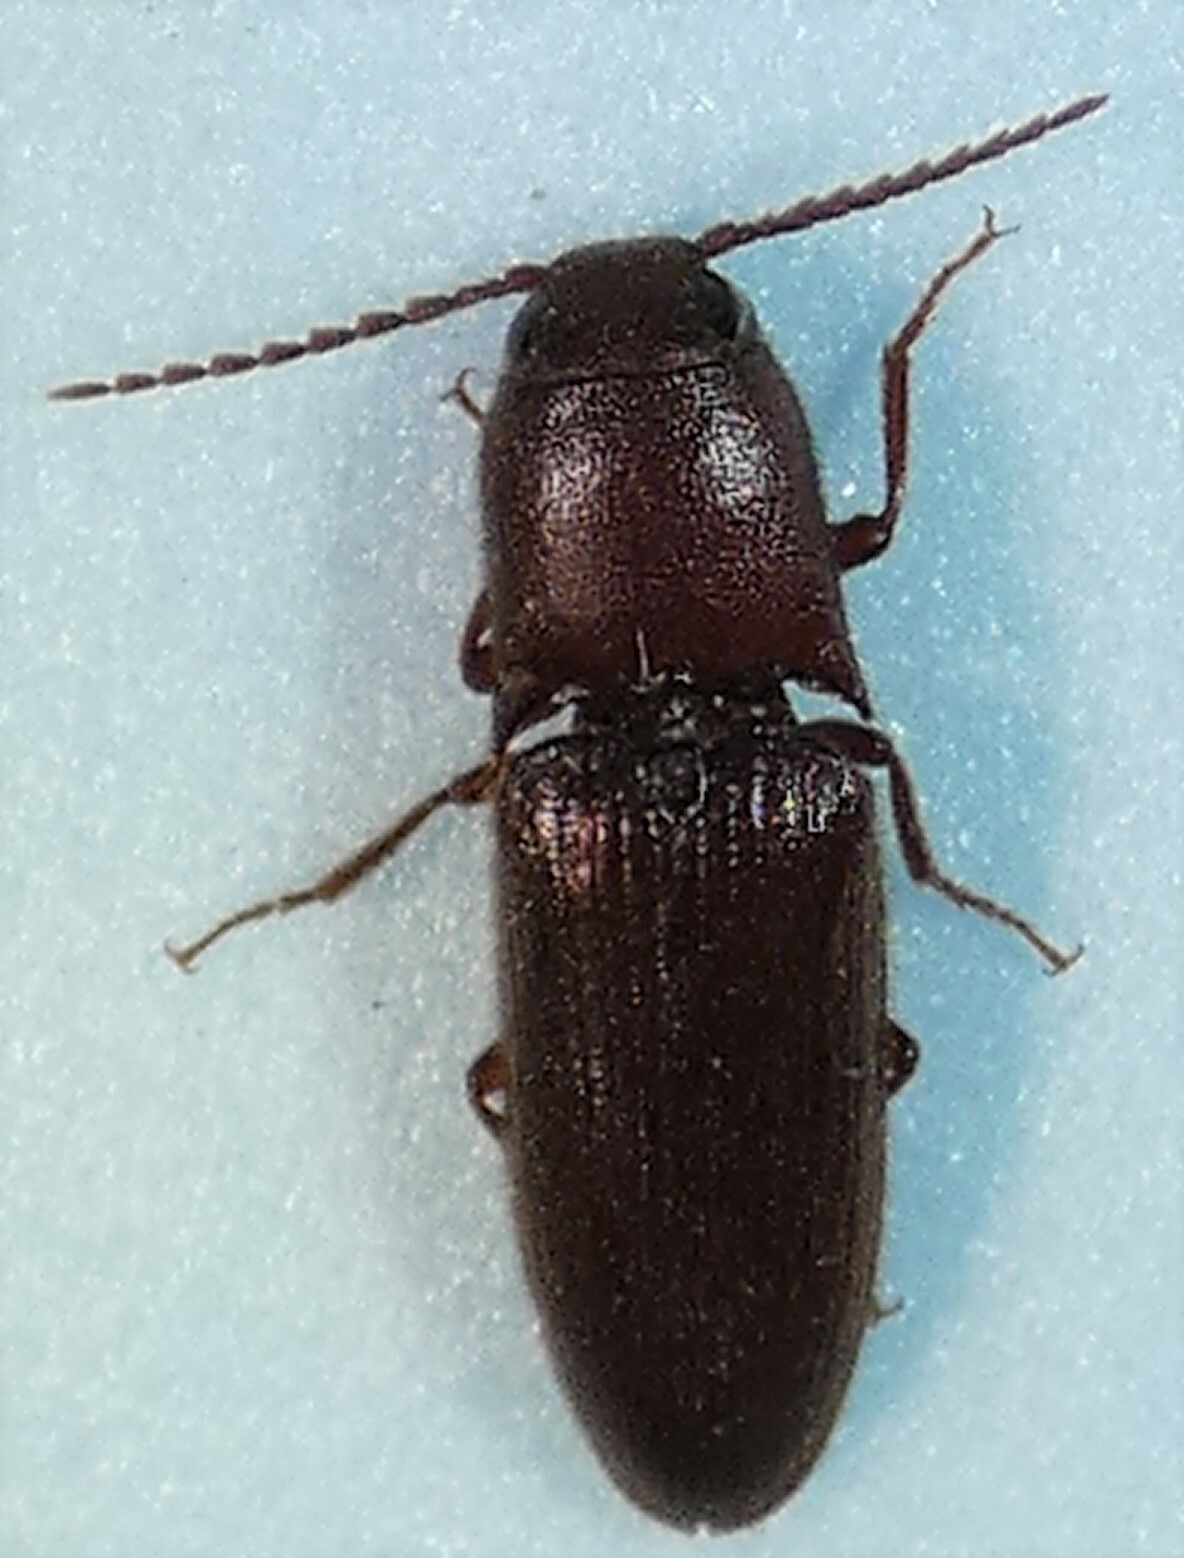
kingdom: Animalia
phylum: Arthropoda
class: Insecta
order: Coleoptera
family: Elateridae
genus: Blauta
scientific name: Blauta
